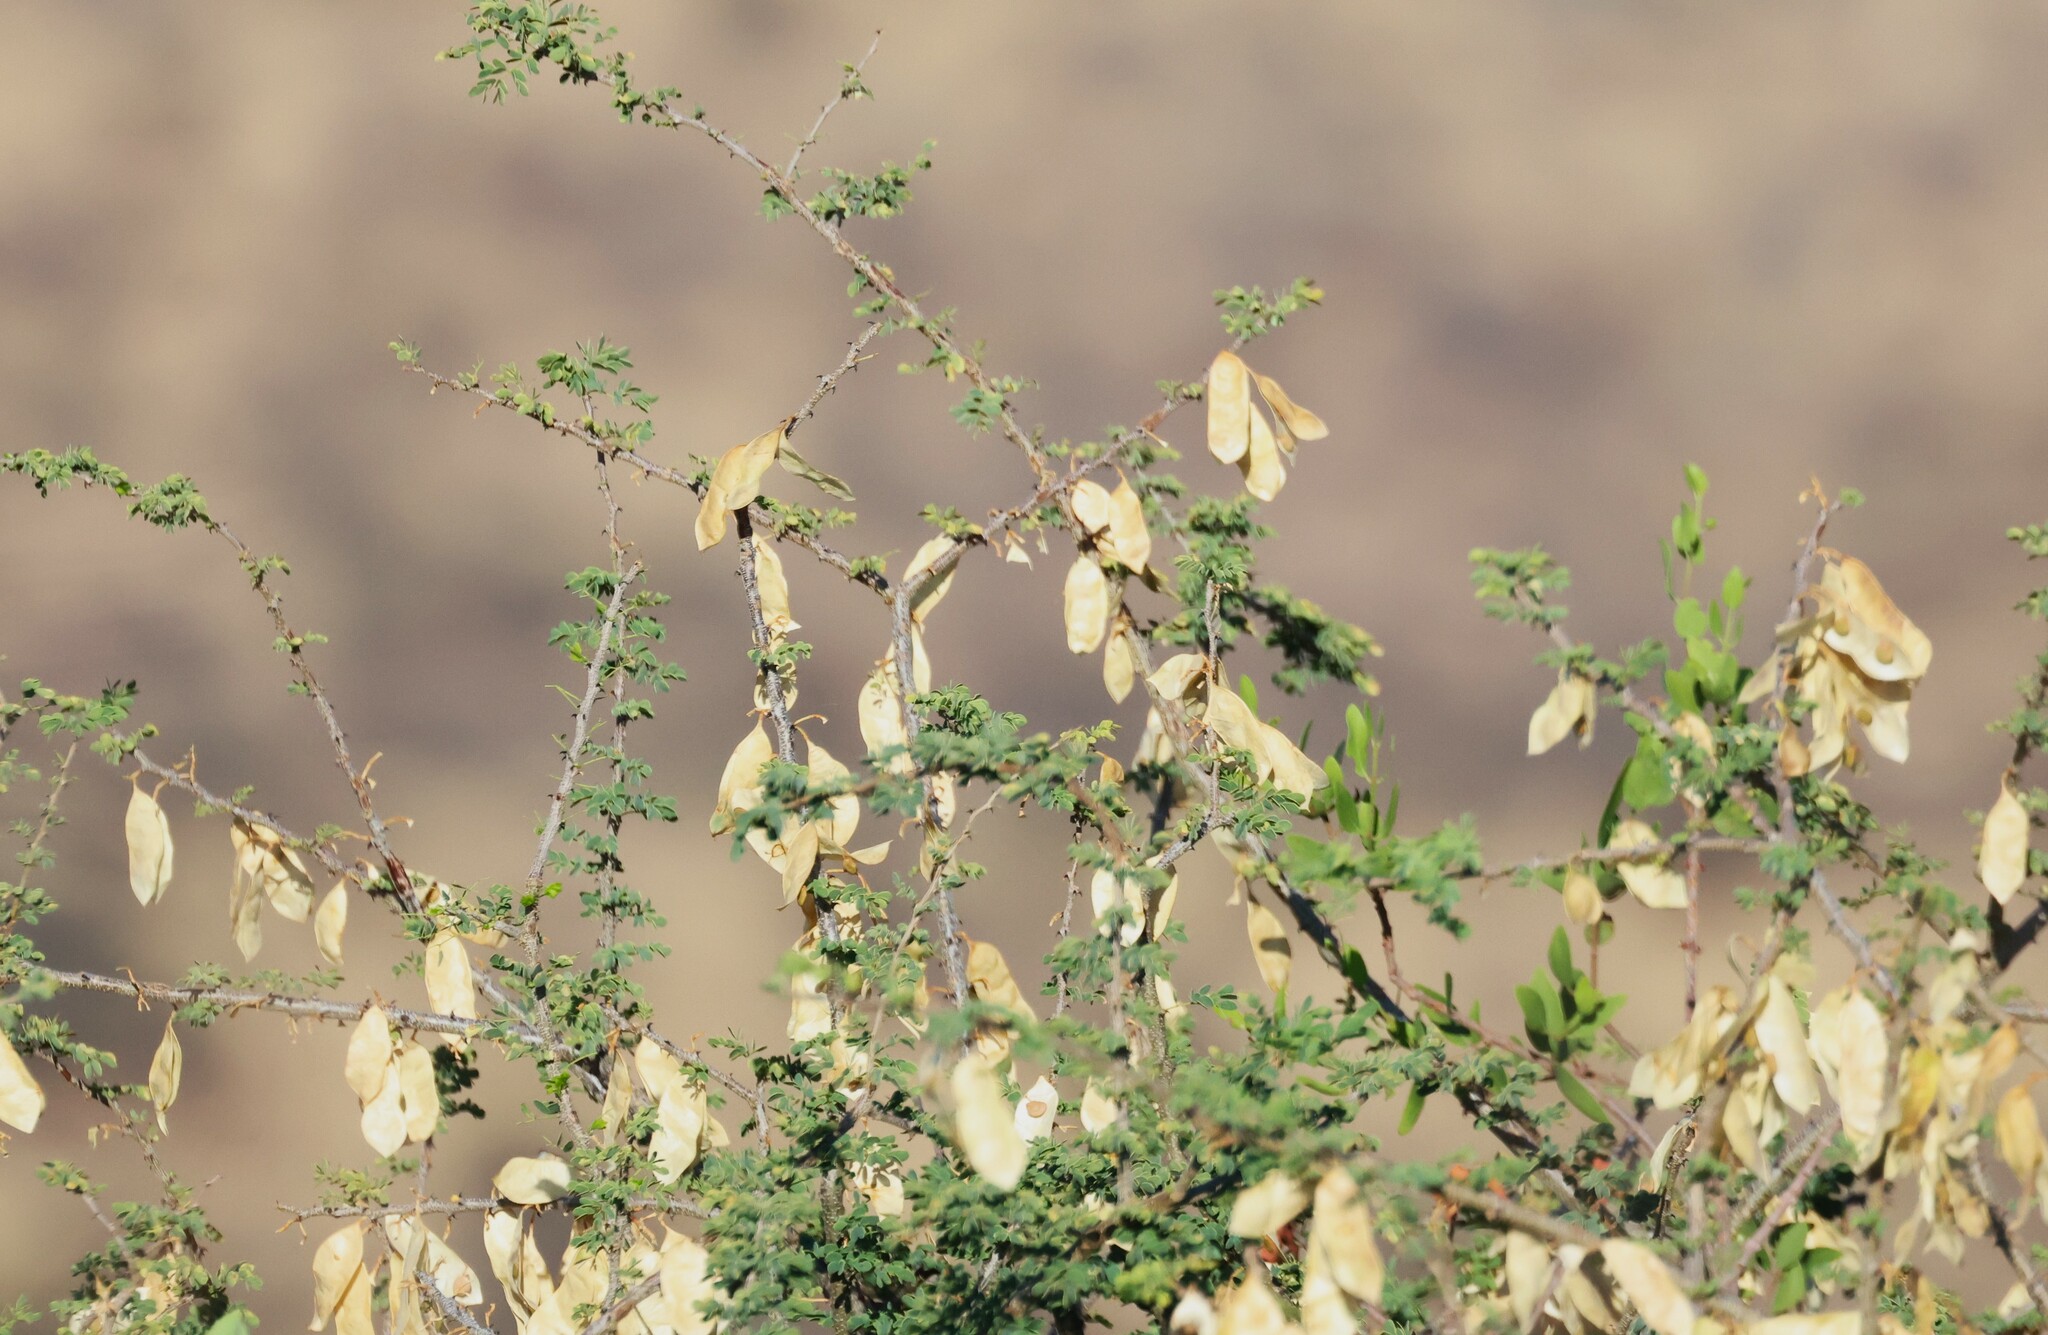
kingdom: Plantae
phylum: Tracheophyta
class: Magnoliopsida
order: Fabales
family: Fabaceae
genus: Senegalia
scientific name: Senegalia mellifera
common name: Hookthorn
